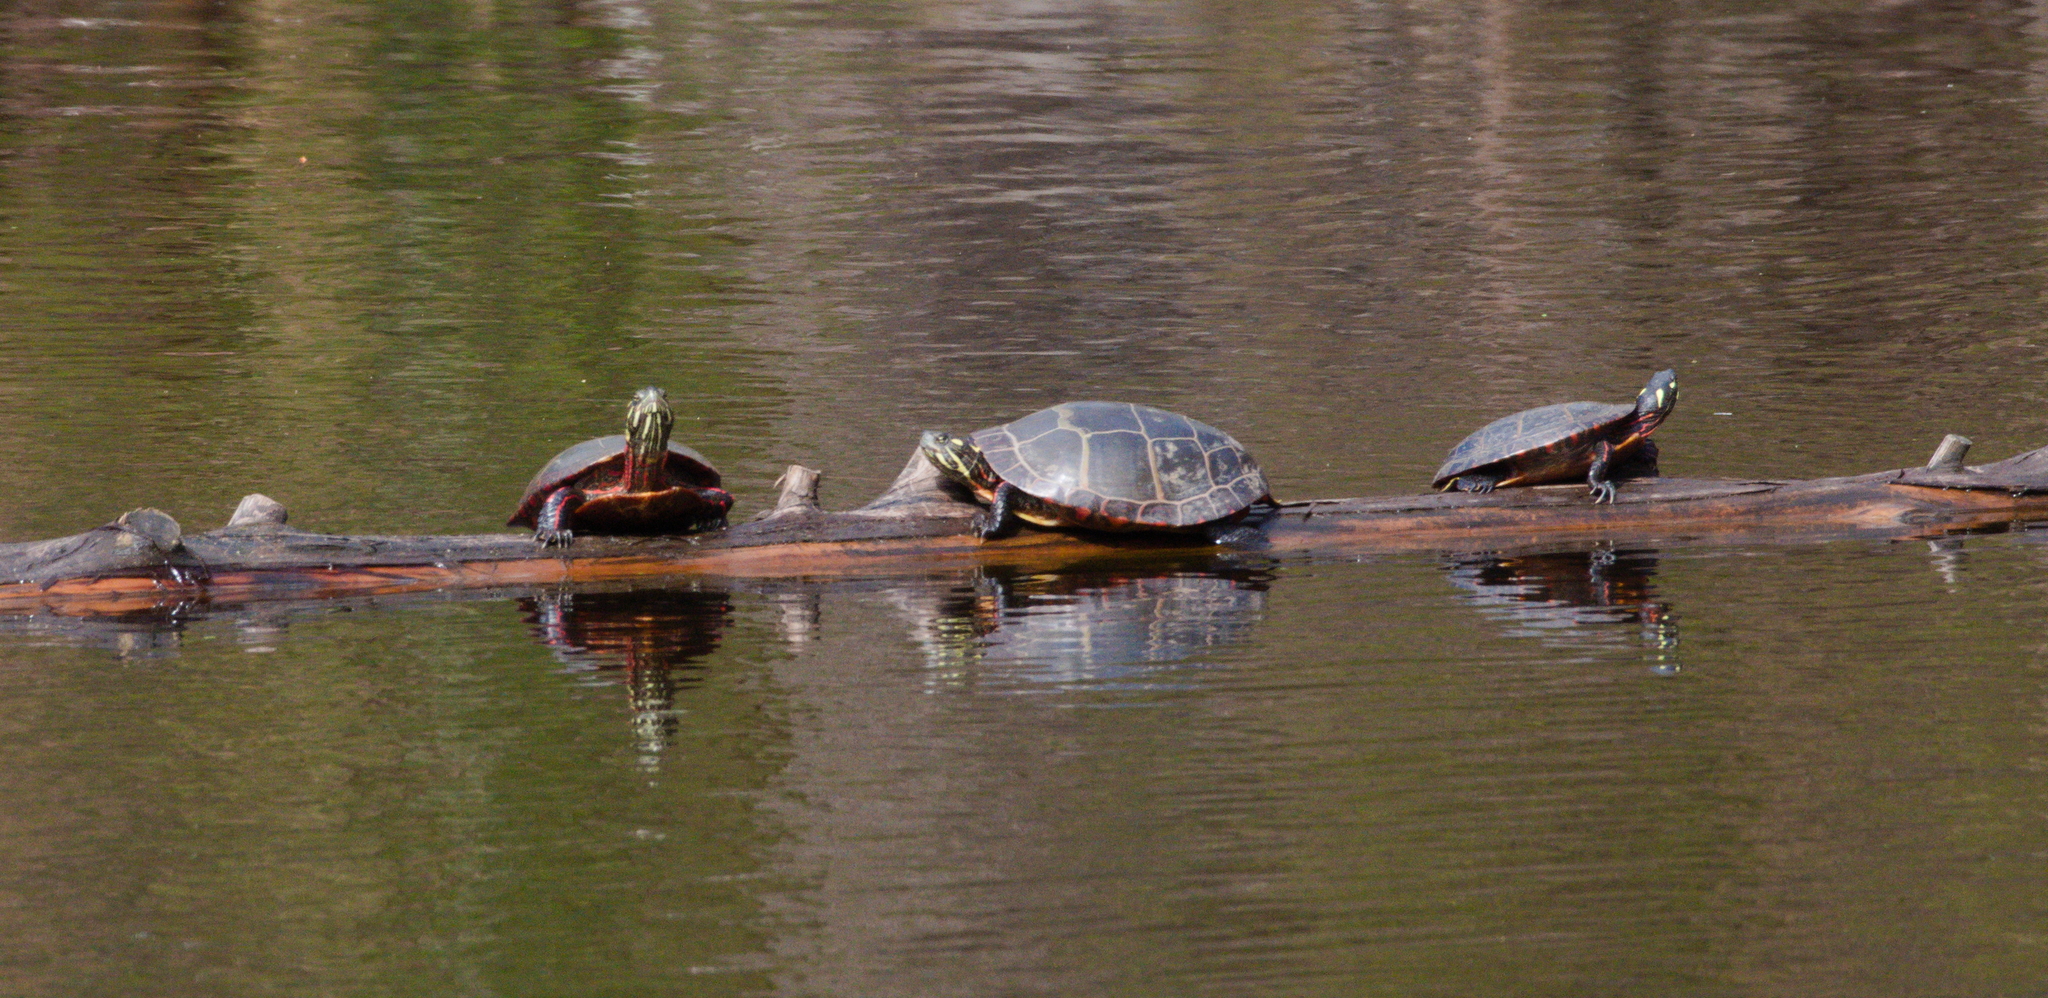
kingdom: Animalia
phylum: Chordata
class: Testudines
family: Emydidae
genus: Chrysemys
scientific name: Chrysemys picta
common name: Painted turtle
